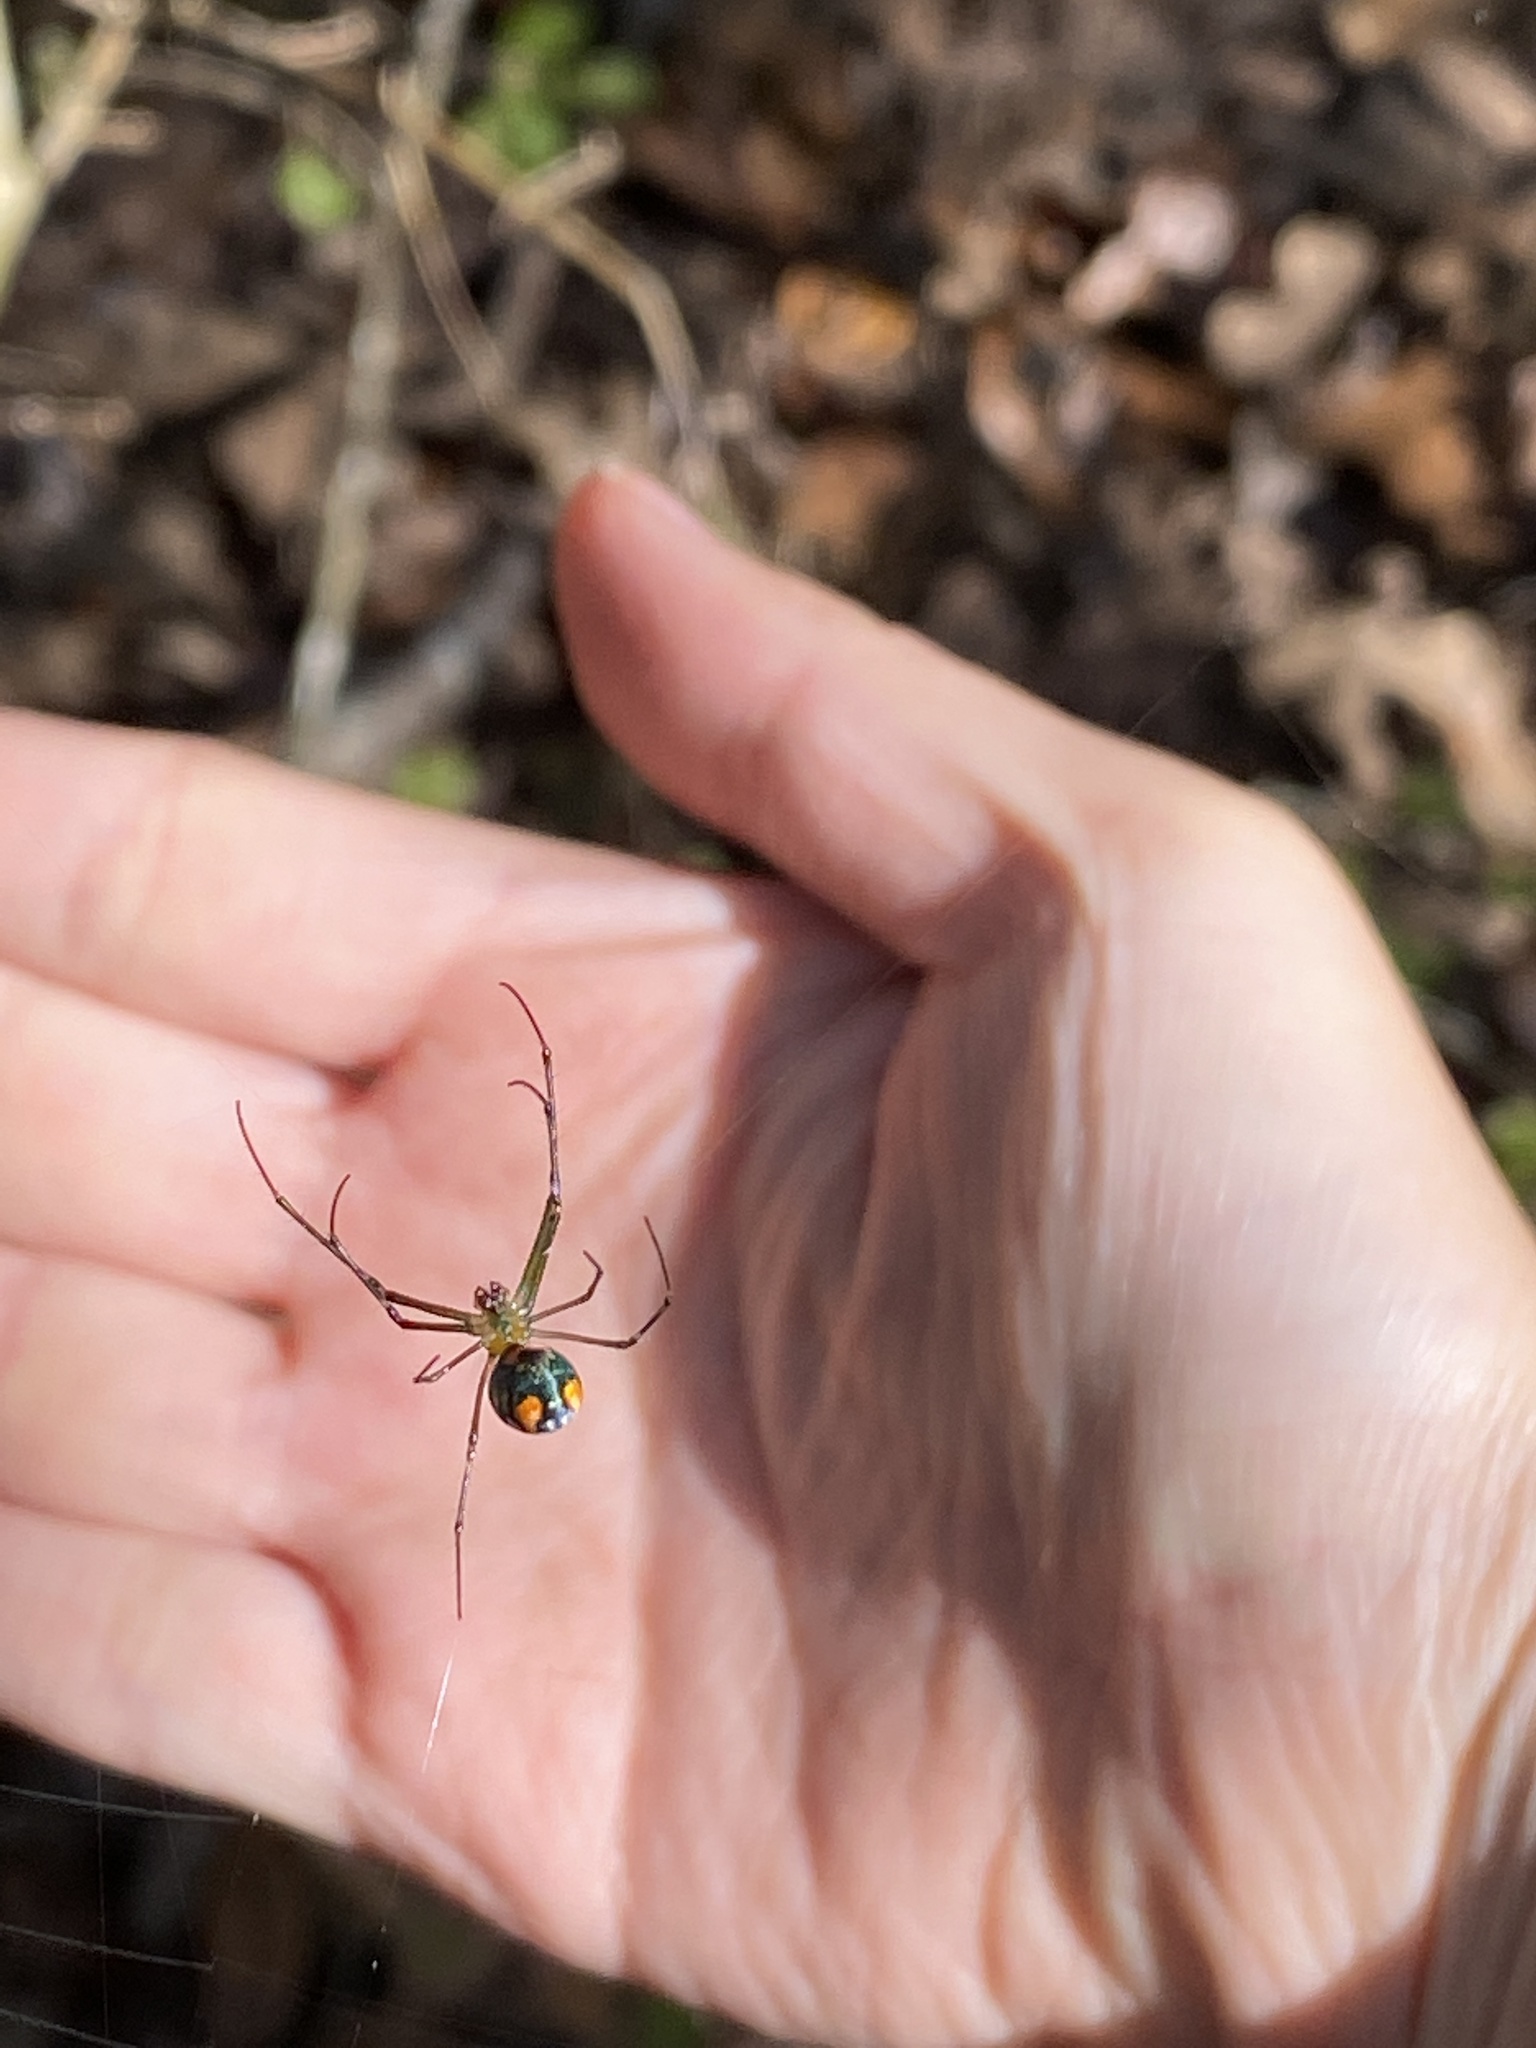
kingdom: Animalia
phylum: Arthropoda
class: Arachnida
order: Araneae
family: Tetragnathidae
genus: Leucauge
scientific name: Leucauge argyrobapta
